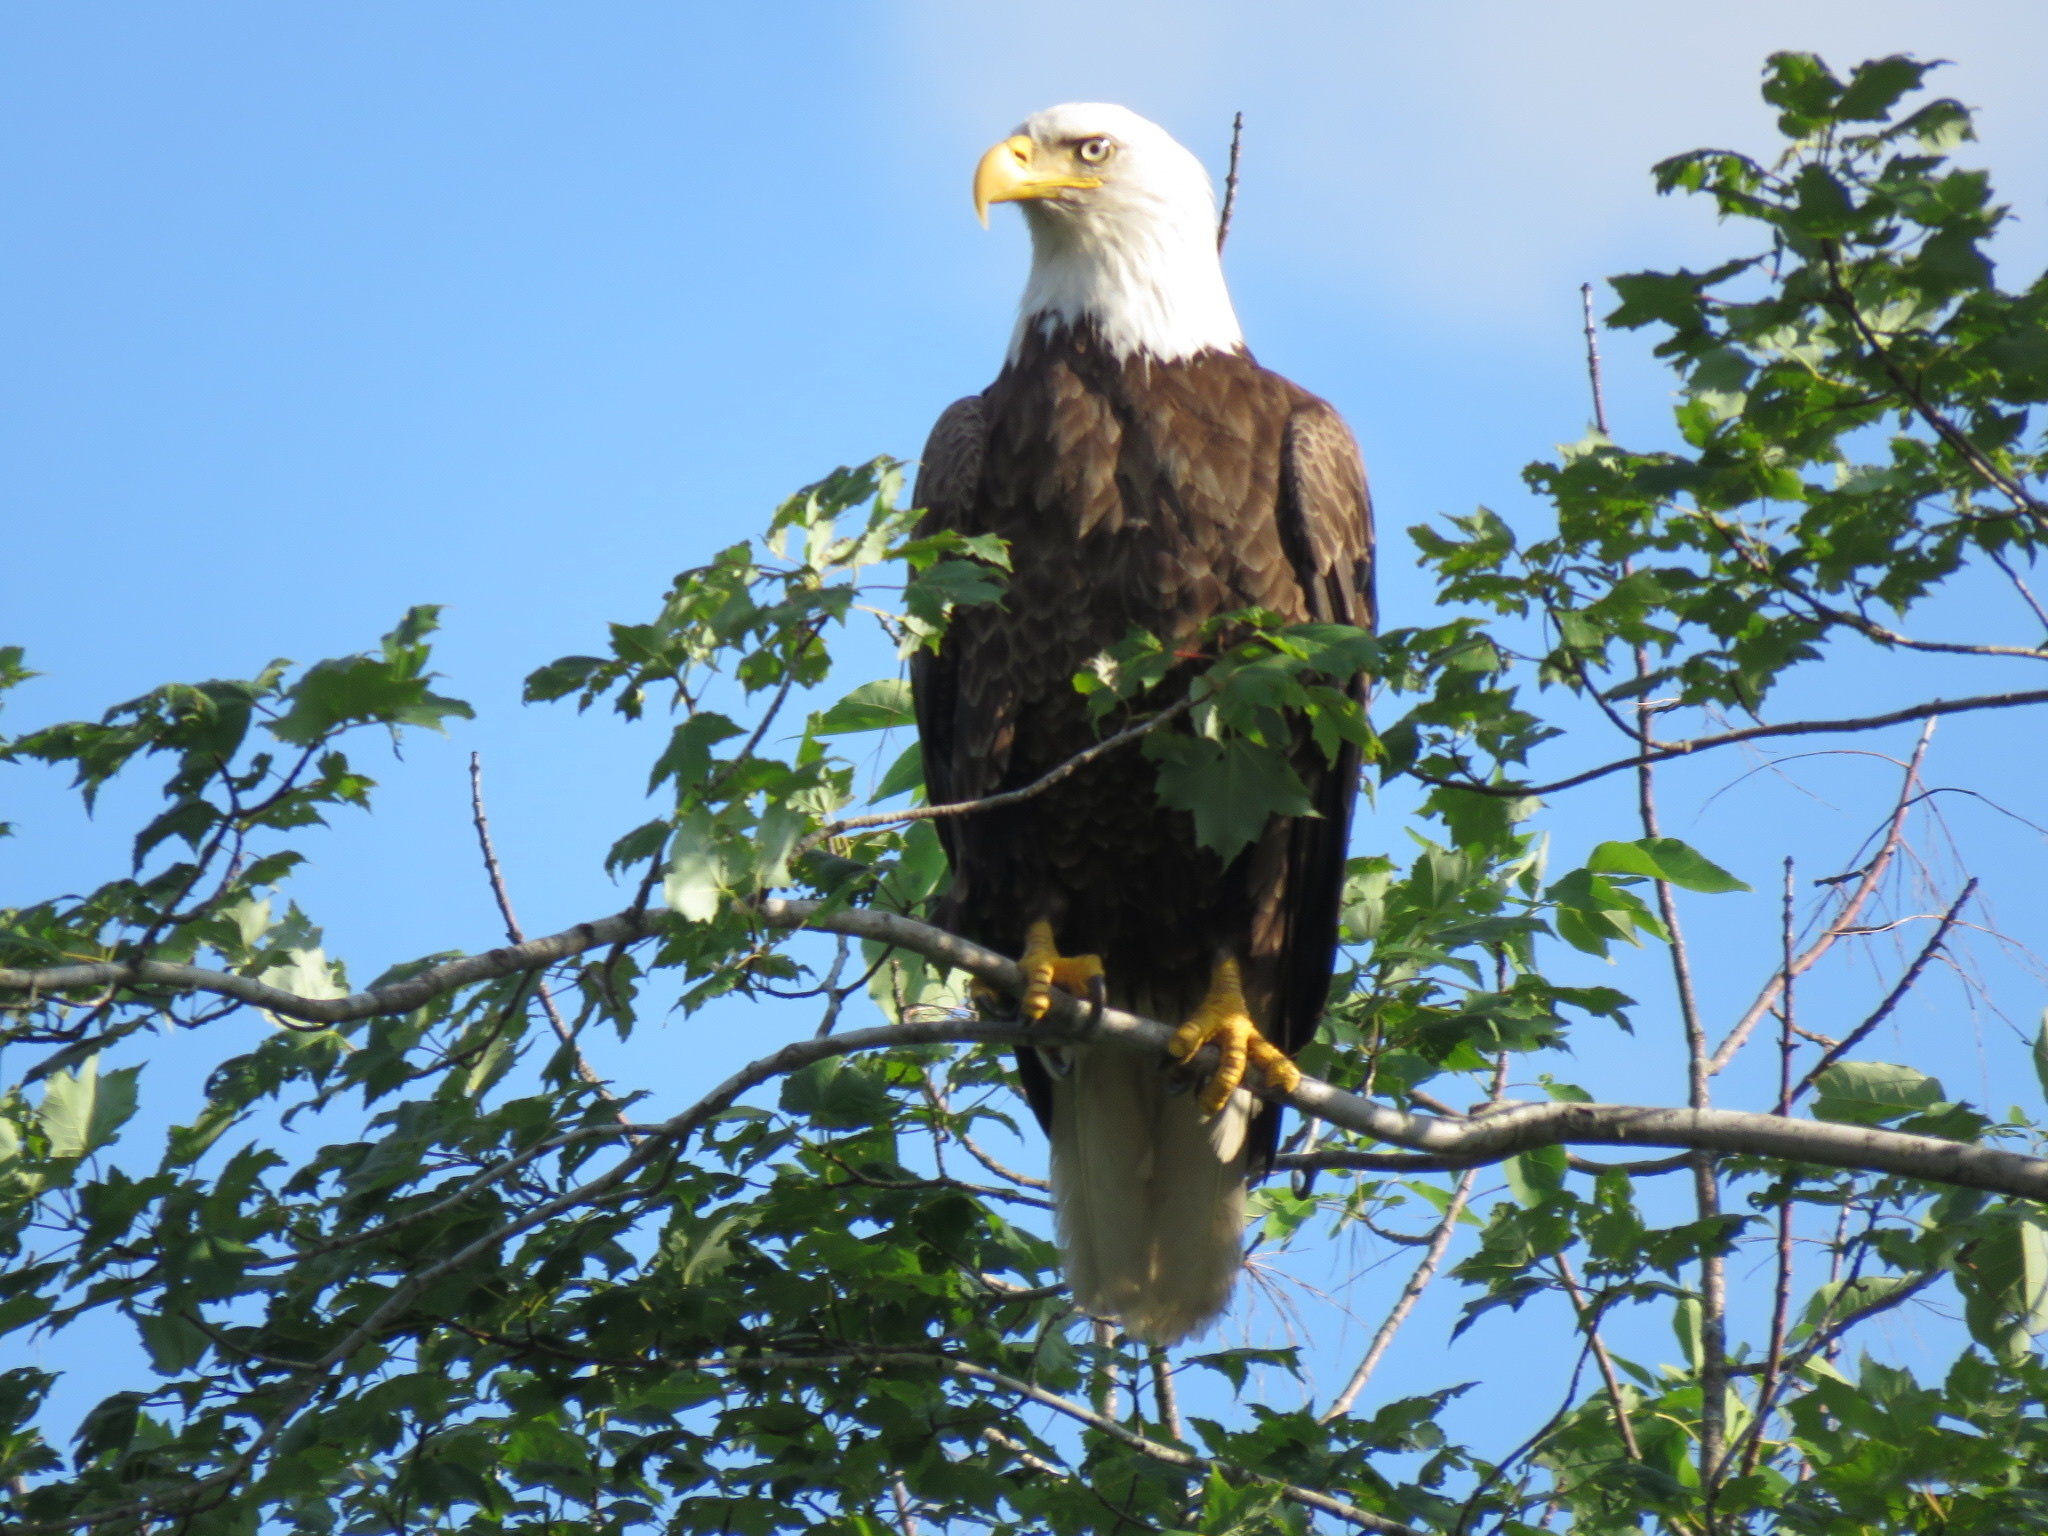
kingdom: Animalia
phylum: Chordata
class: Aves
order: Accipitriformes
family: Accipitridae
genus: Haliaeetus
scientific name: Haliaeetus leucocephalus
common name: Bald eagle
